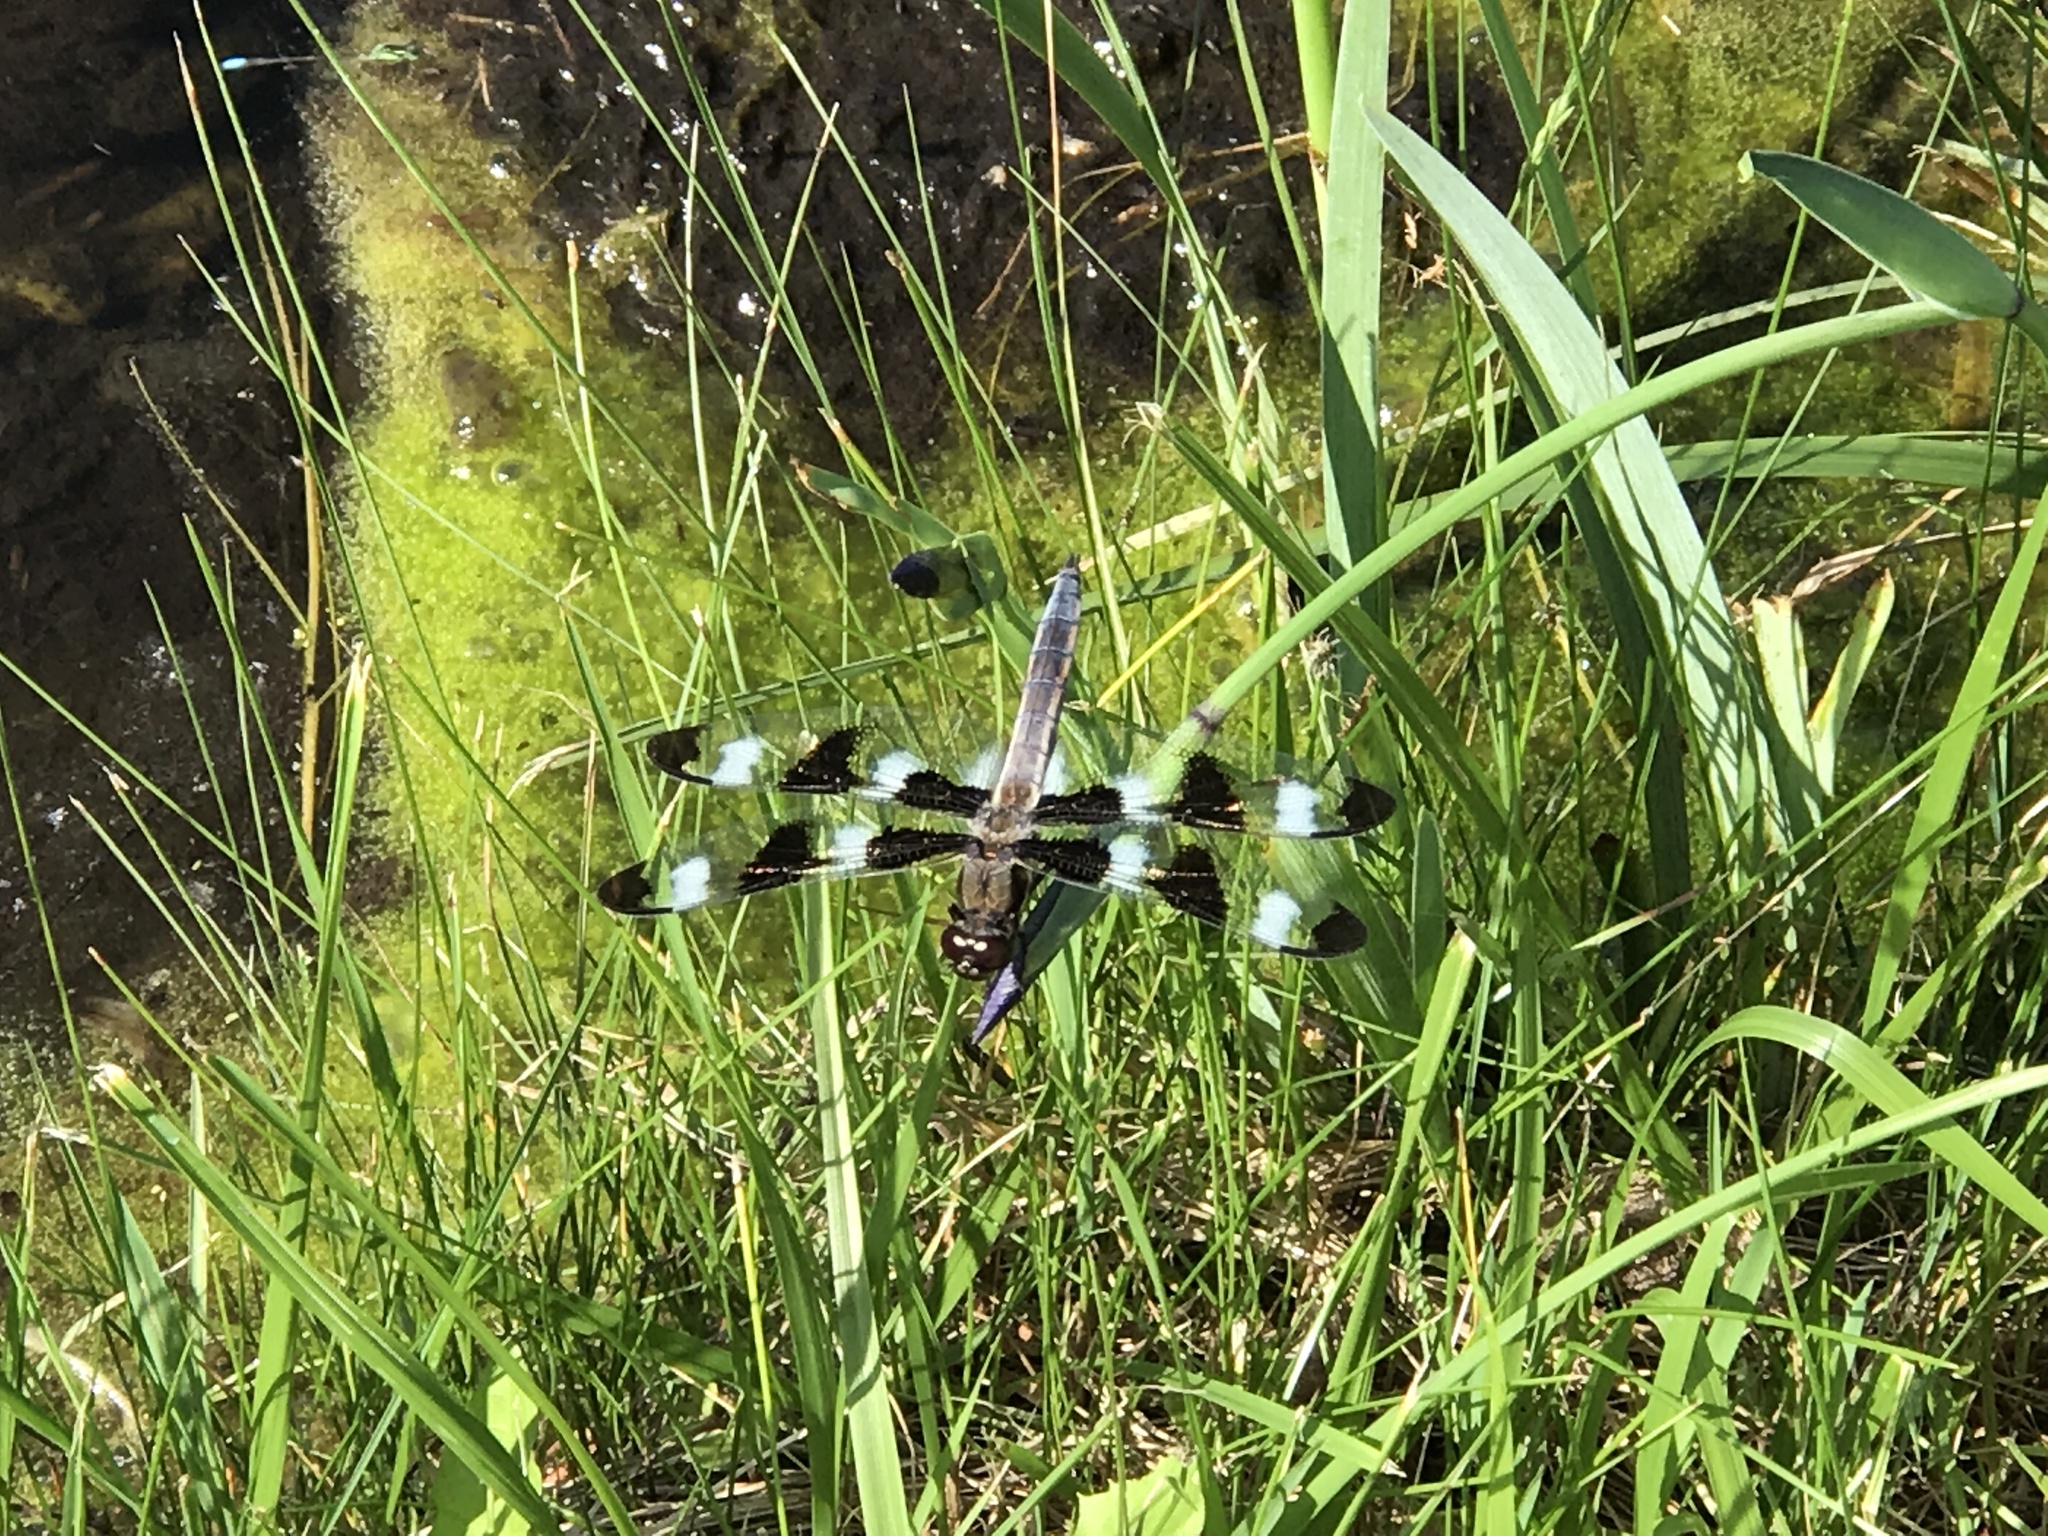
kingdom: Animalia
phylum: Arthropoda
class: Insecta
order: Odonata
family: Libellulidae
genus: Libellula
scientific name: Libellula pulchella
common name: Twelve-spotted skimmer
